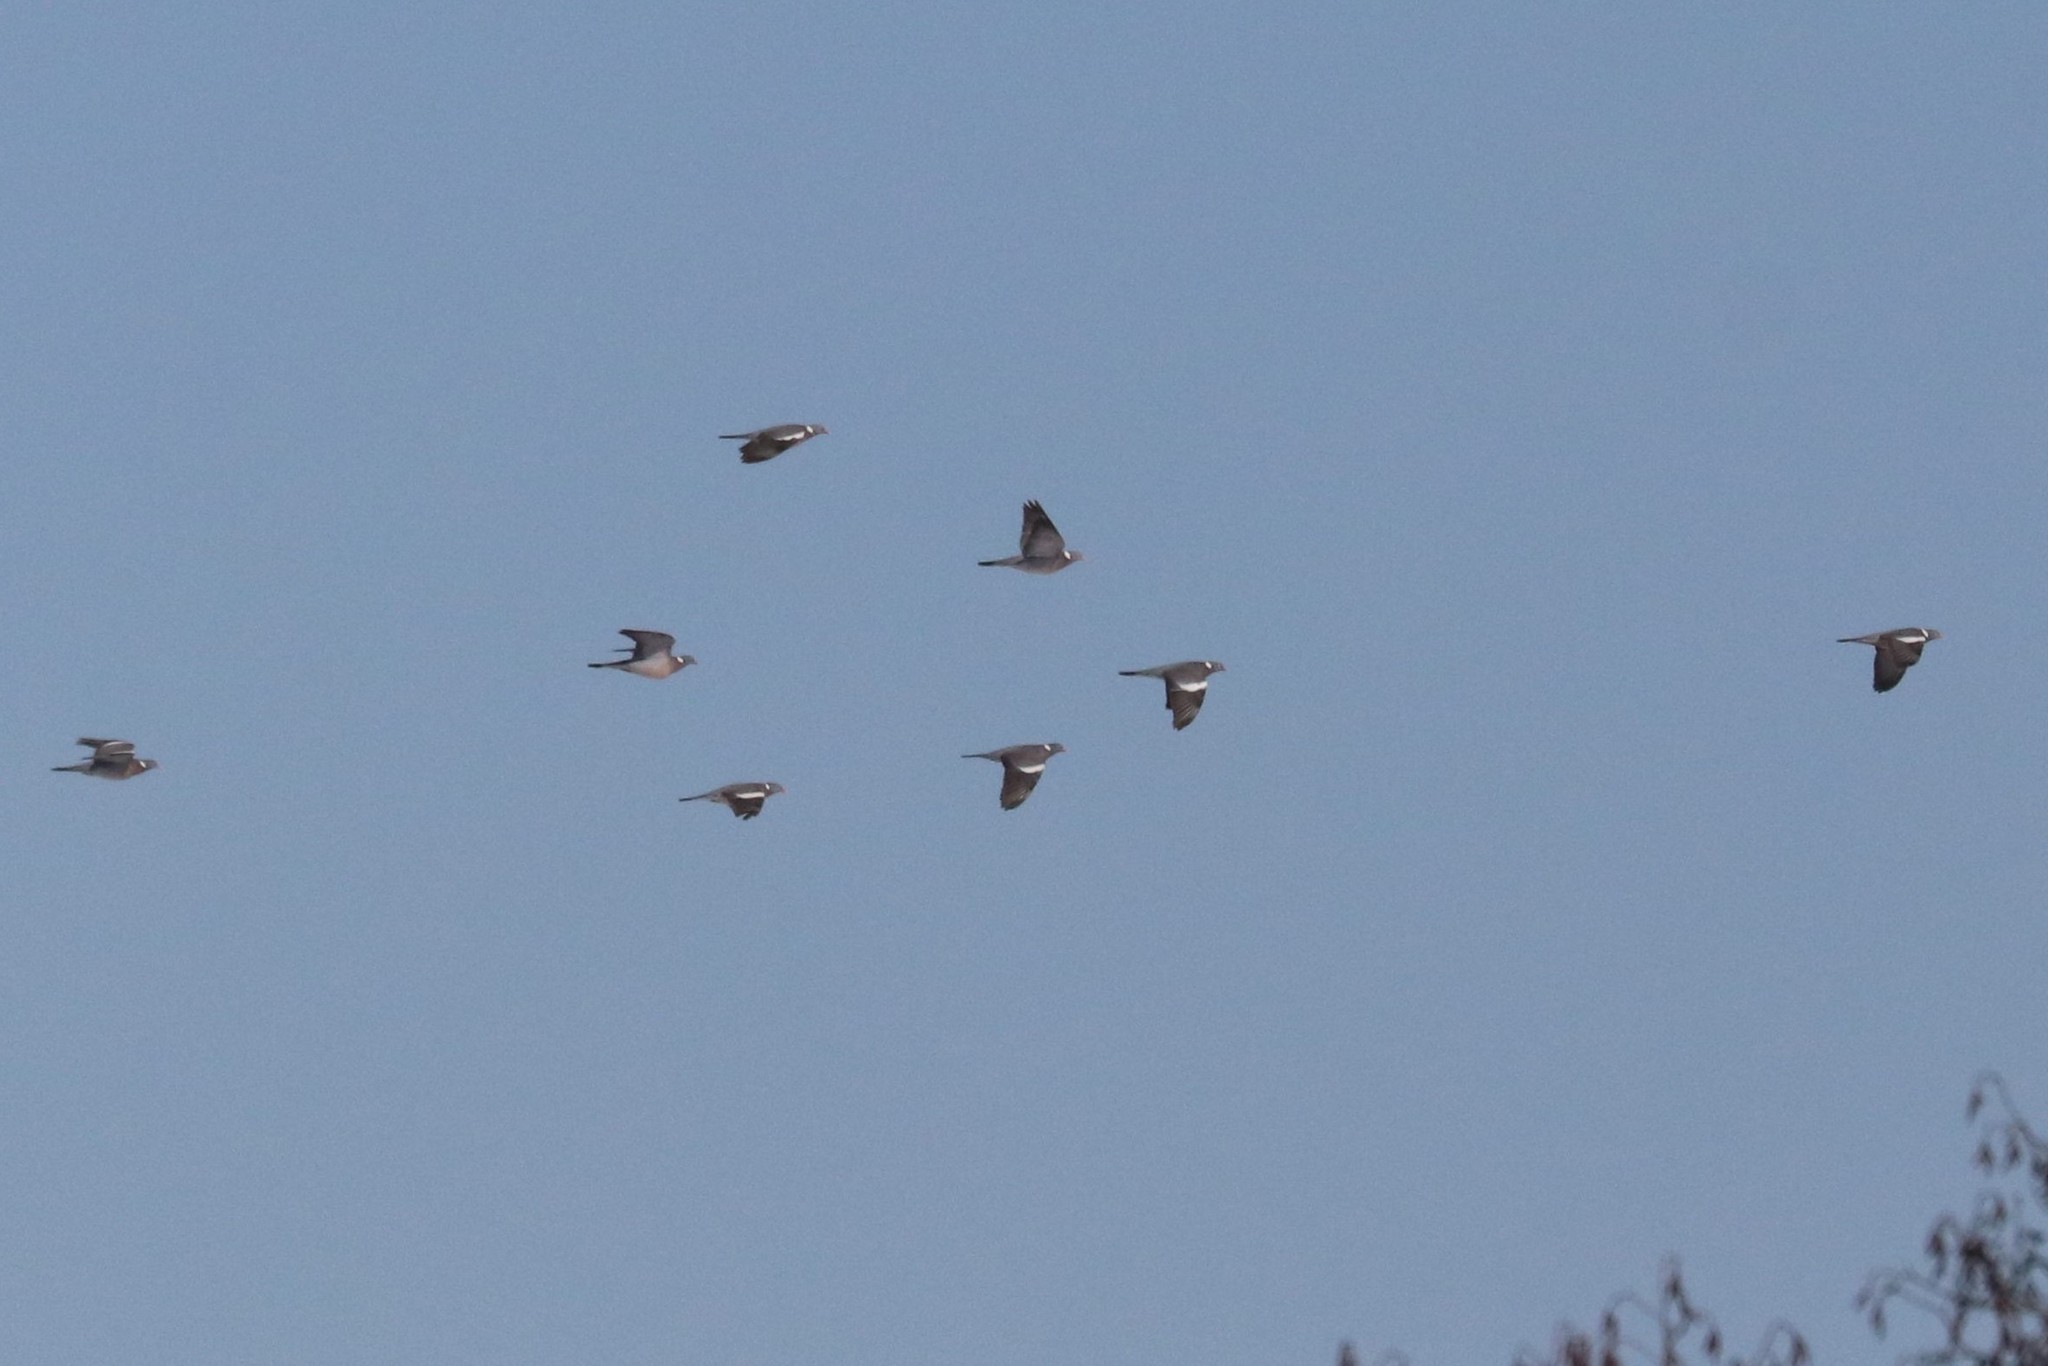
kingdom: Animalia
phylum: Chordata
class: Aves
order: Columbiformes
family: Columbidae
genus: Columba
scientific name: Columba palumbus
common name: Common wood pigeon
